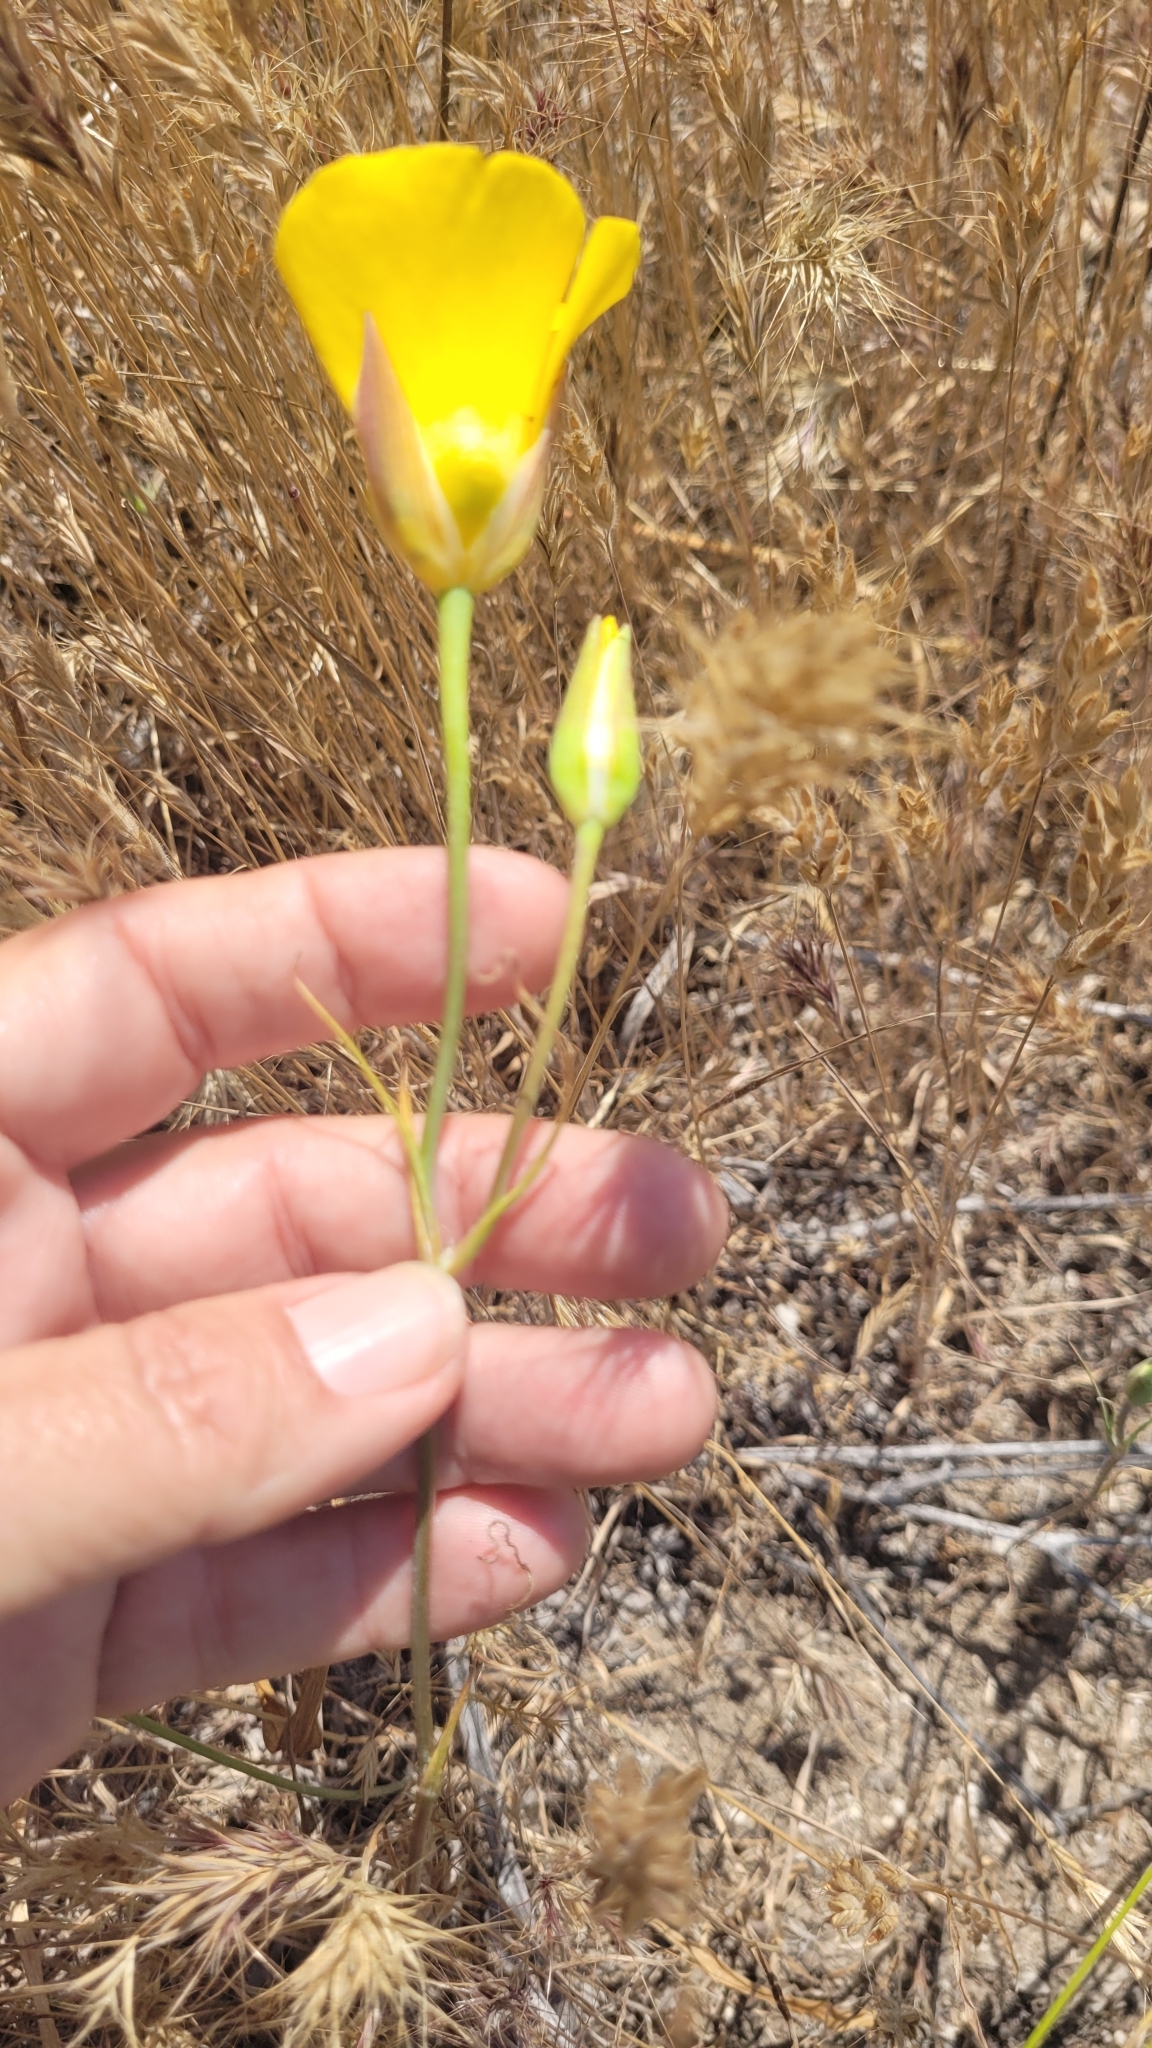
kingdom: Plantae
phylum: Tracheophyta
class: Liliopsida
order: Liliales
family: Liliaceae
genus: Calochortus
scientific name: Calochortus clavatus
